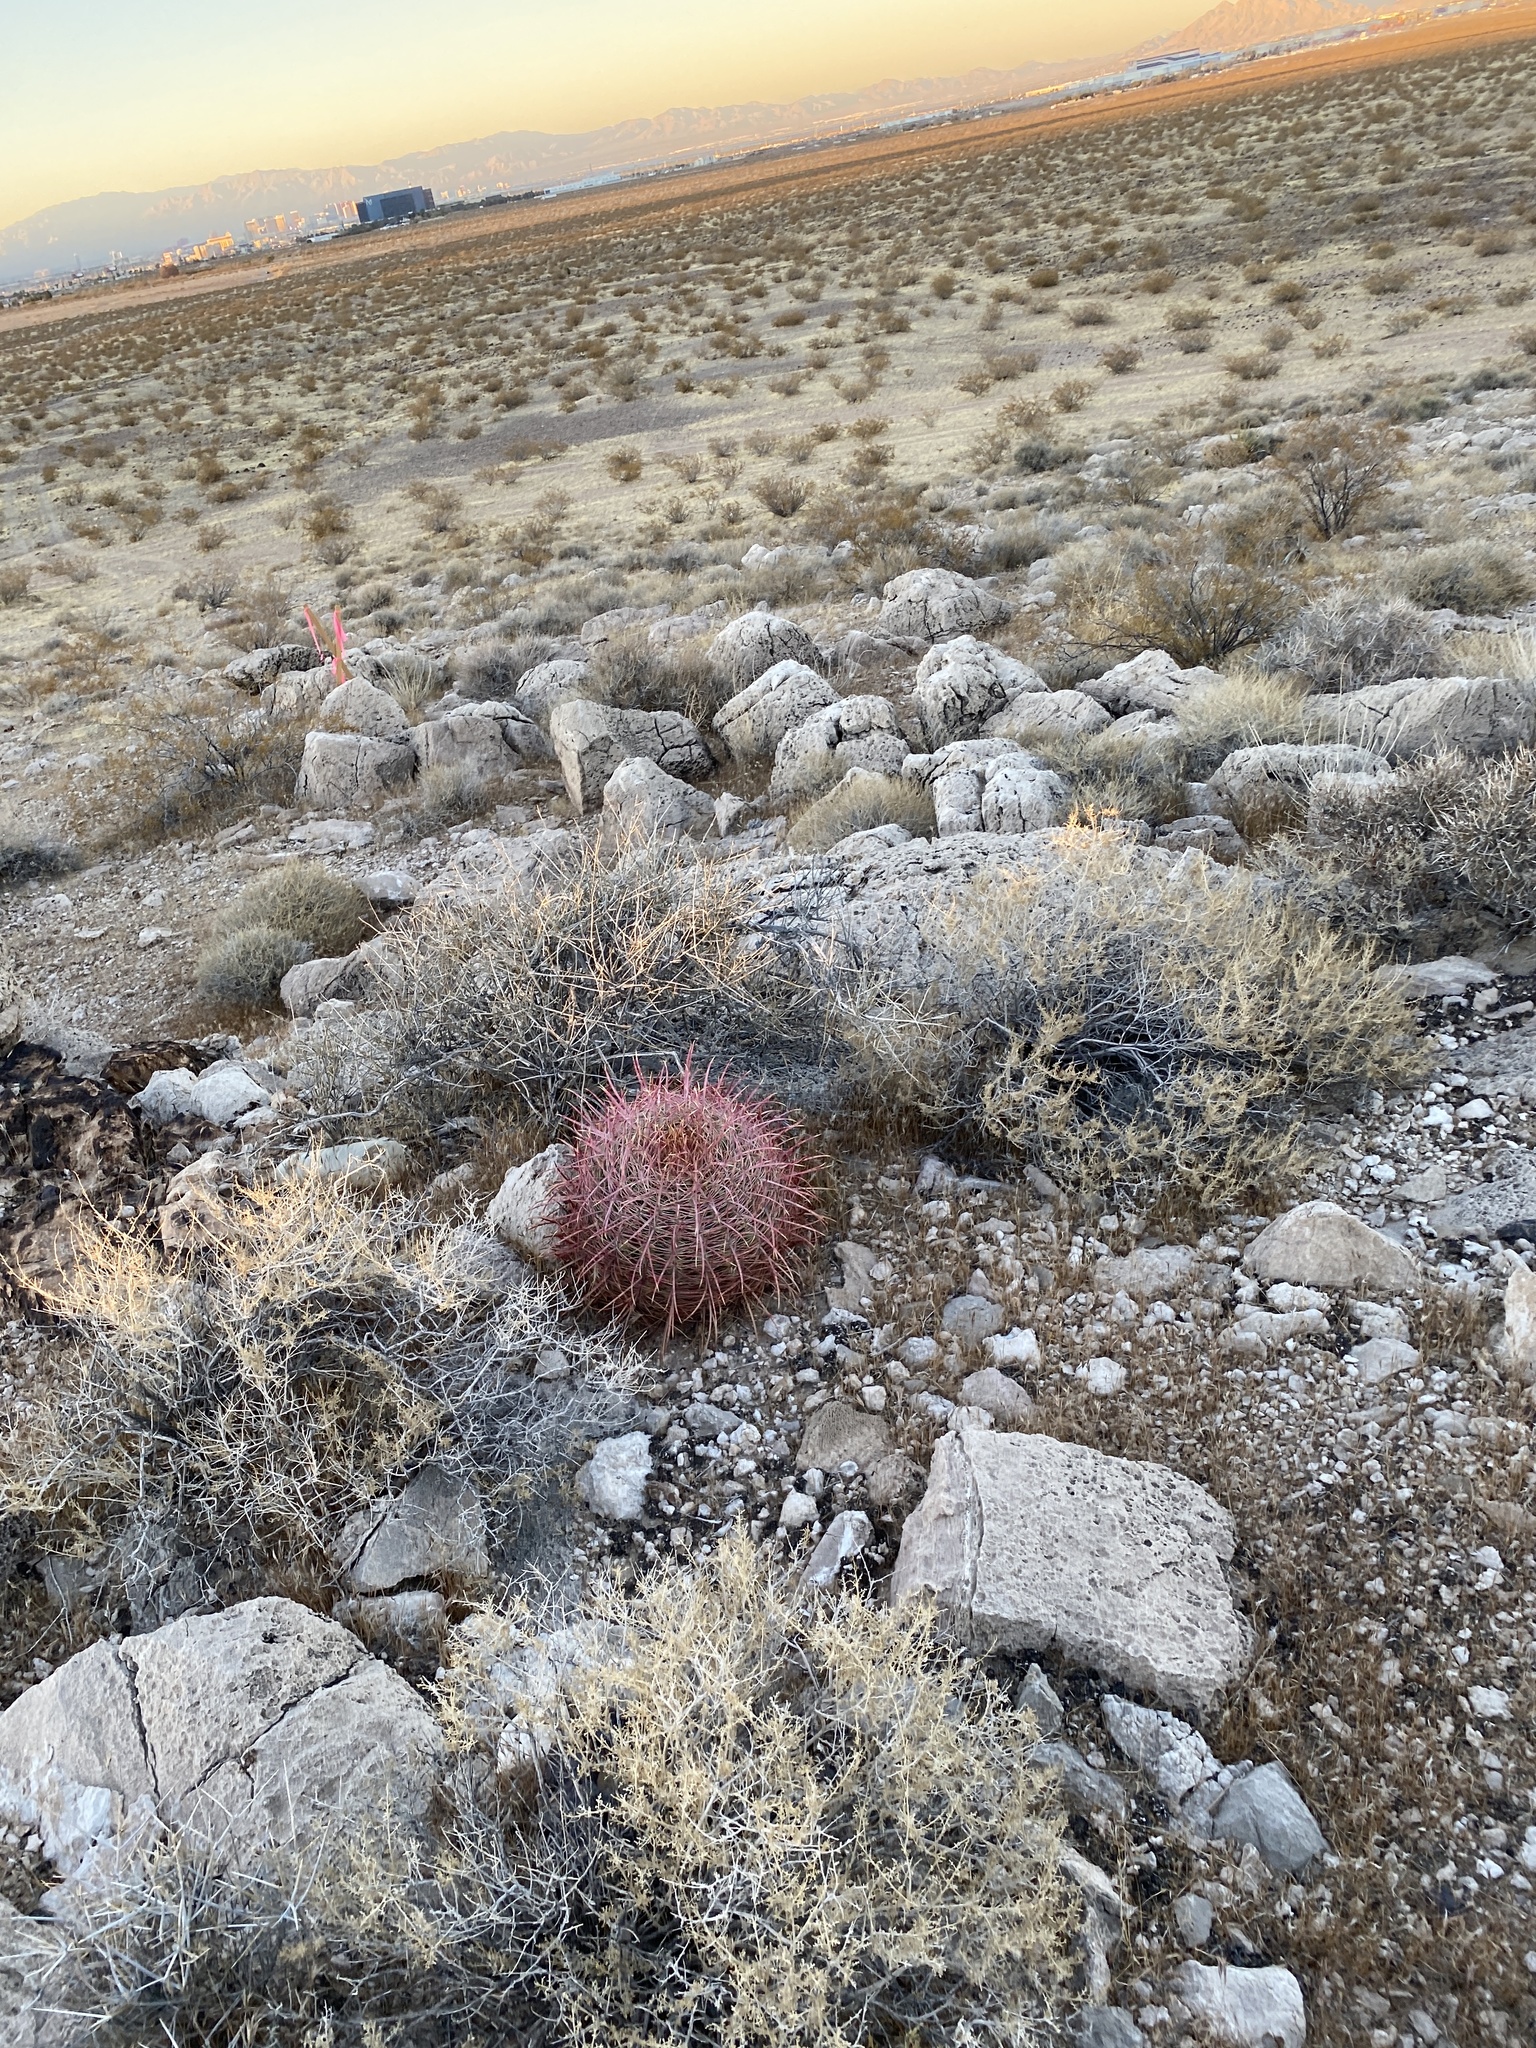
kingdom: Plantae
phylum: Tracheophyta
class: Magnoliopsida
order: Caryophyllales
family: Cactaceae
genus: Ferocactus
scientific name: Ferocactus cylindraceus
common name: California barrel cactus
